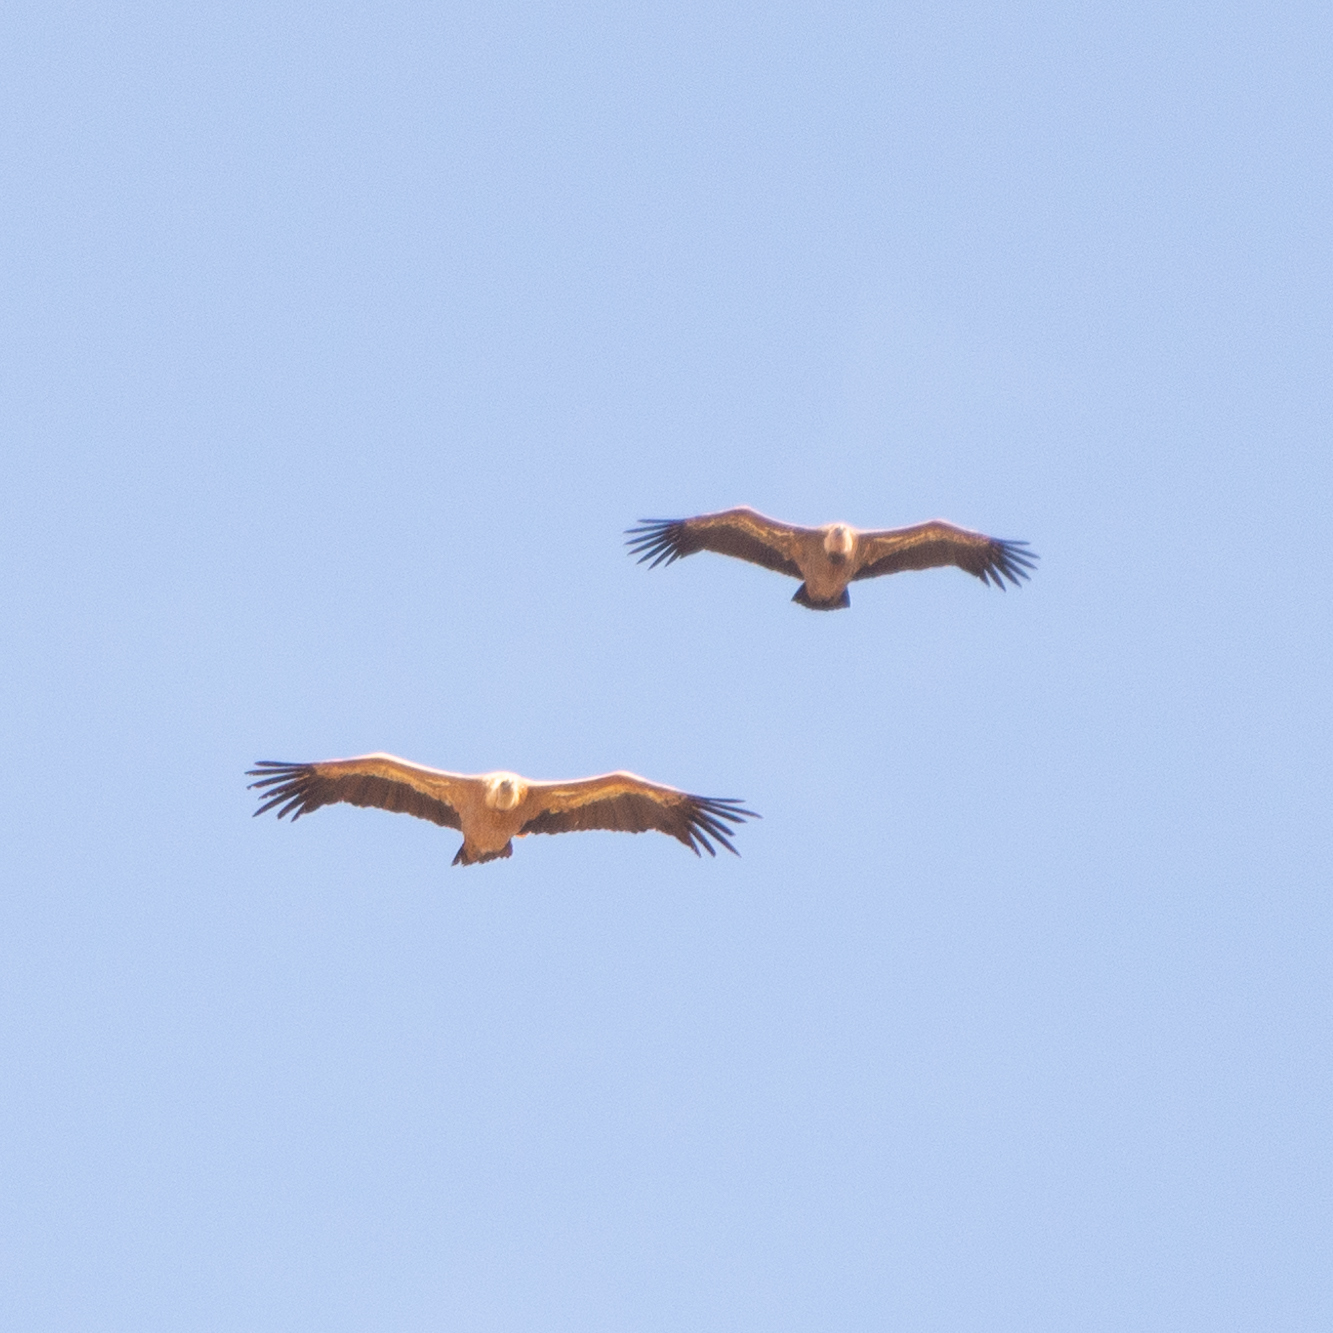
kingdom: Animalia
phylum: Chordata
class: Aves
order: Accipitriformes
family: Accipitridae
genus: Gyps
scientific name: Gyps fulvus
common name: Griffon vulture
